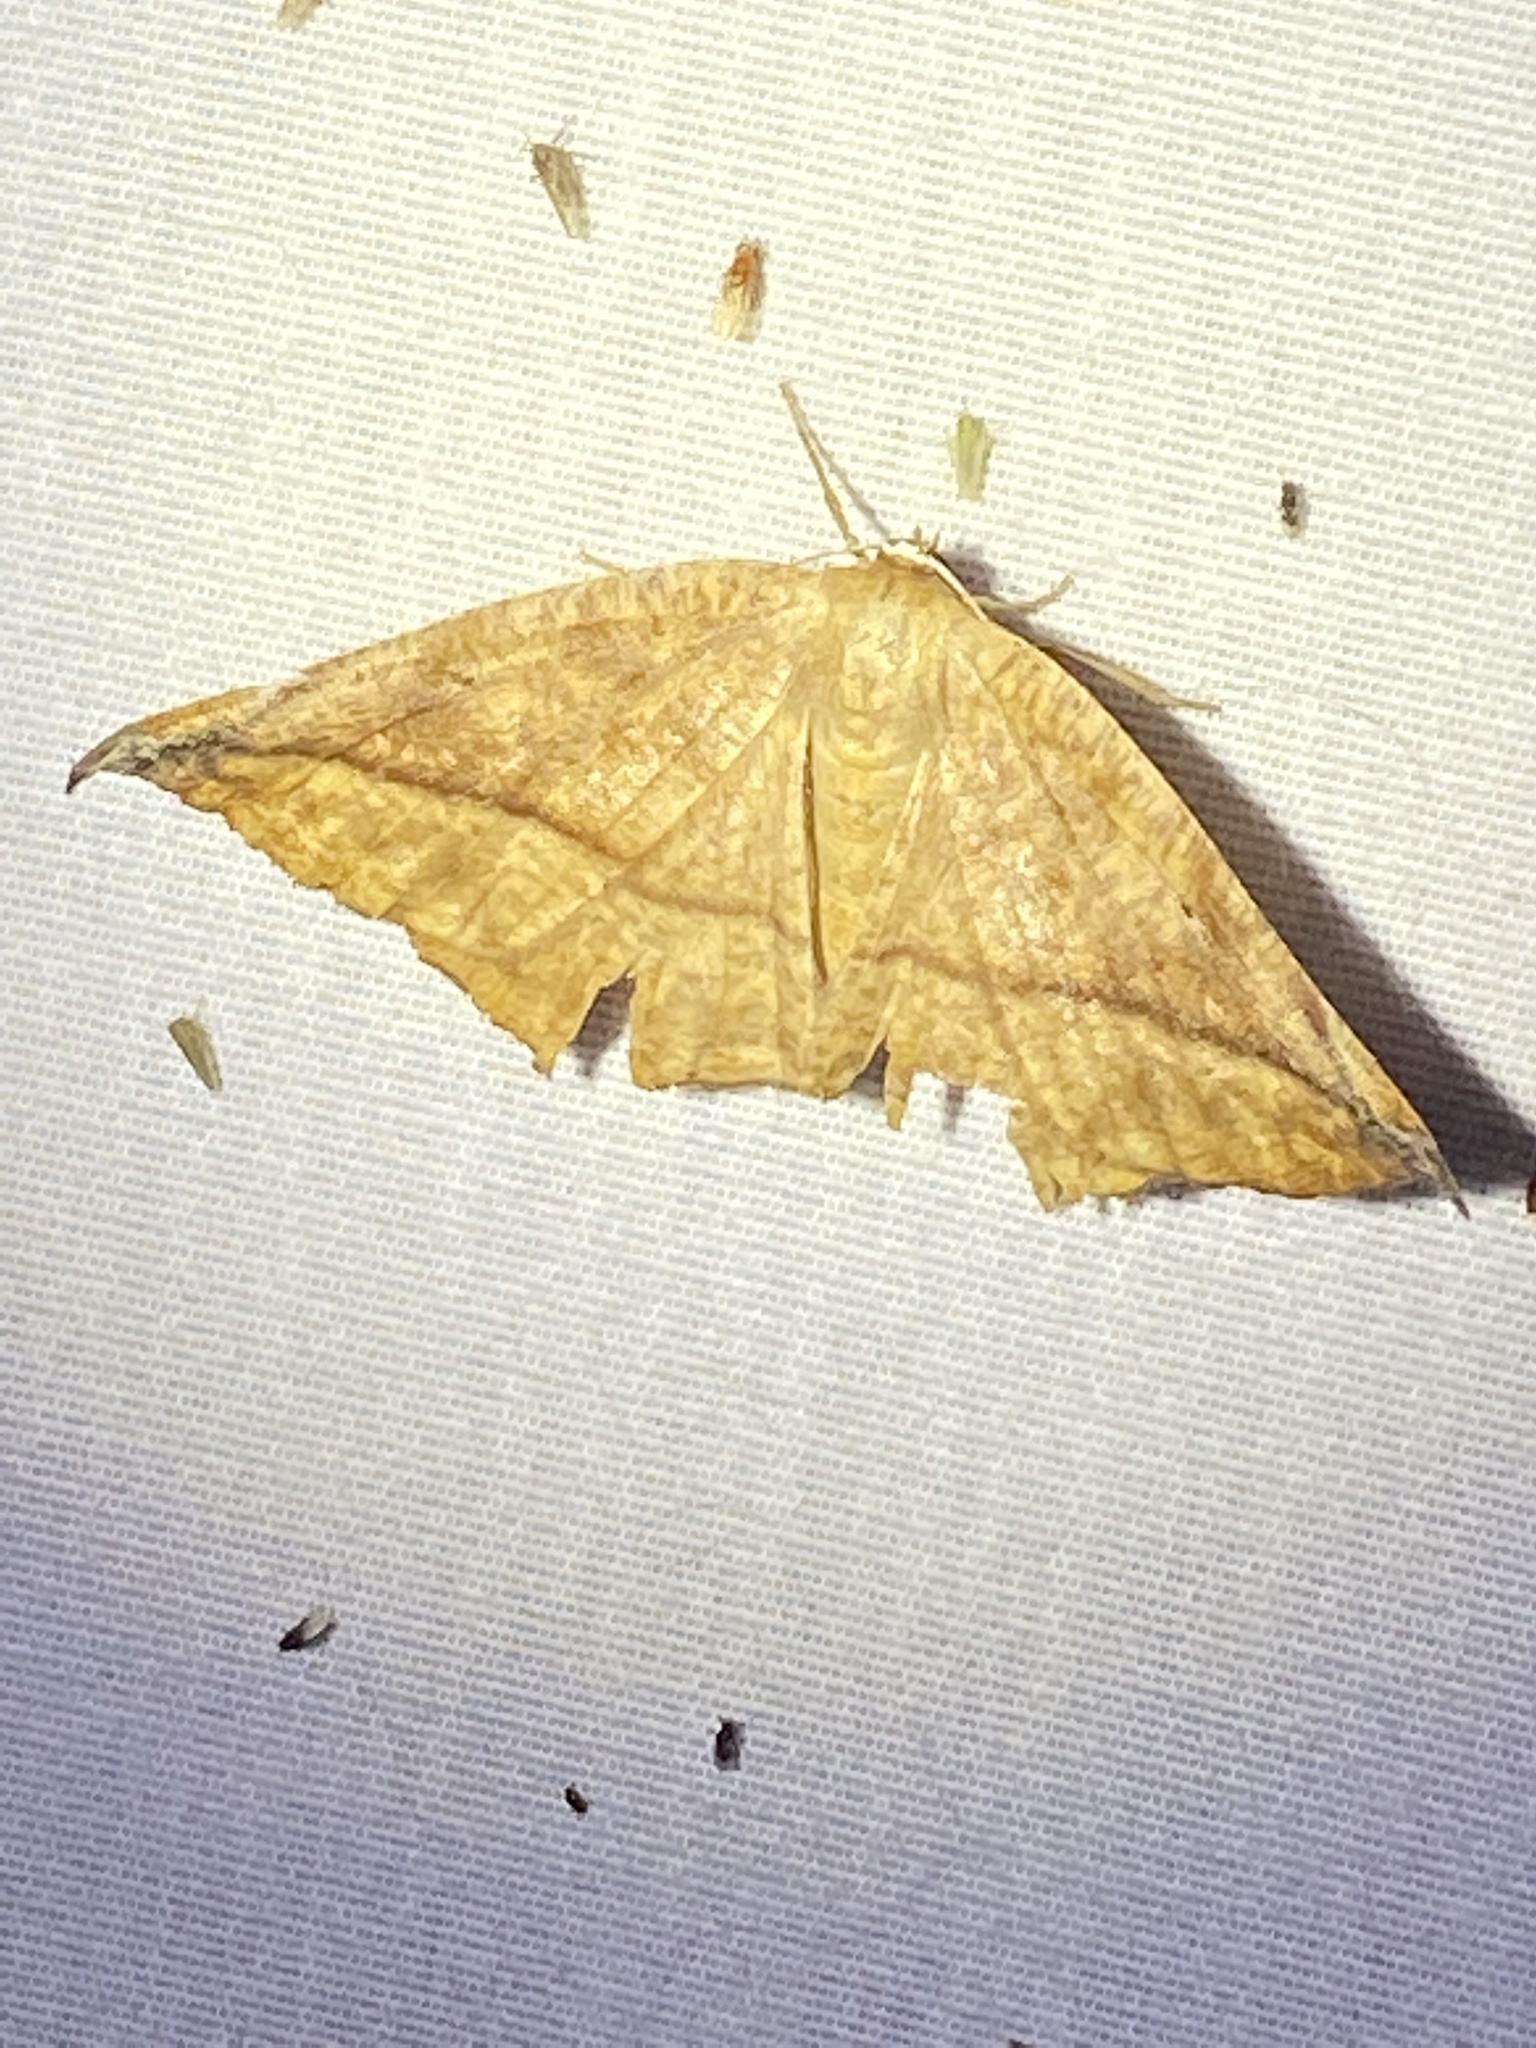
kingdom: Animalia
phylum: Arthropoda
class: Insecta
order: Lepidoptera
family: Geometridae
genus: Eutrapela
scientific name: Eutrapela clemataria
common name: Curved-toothed geometer
